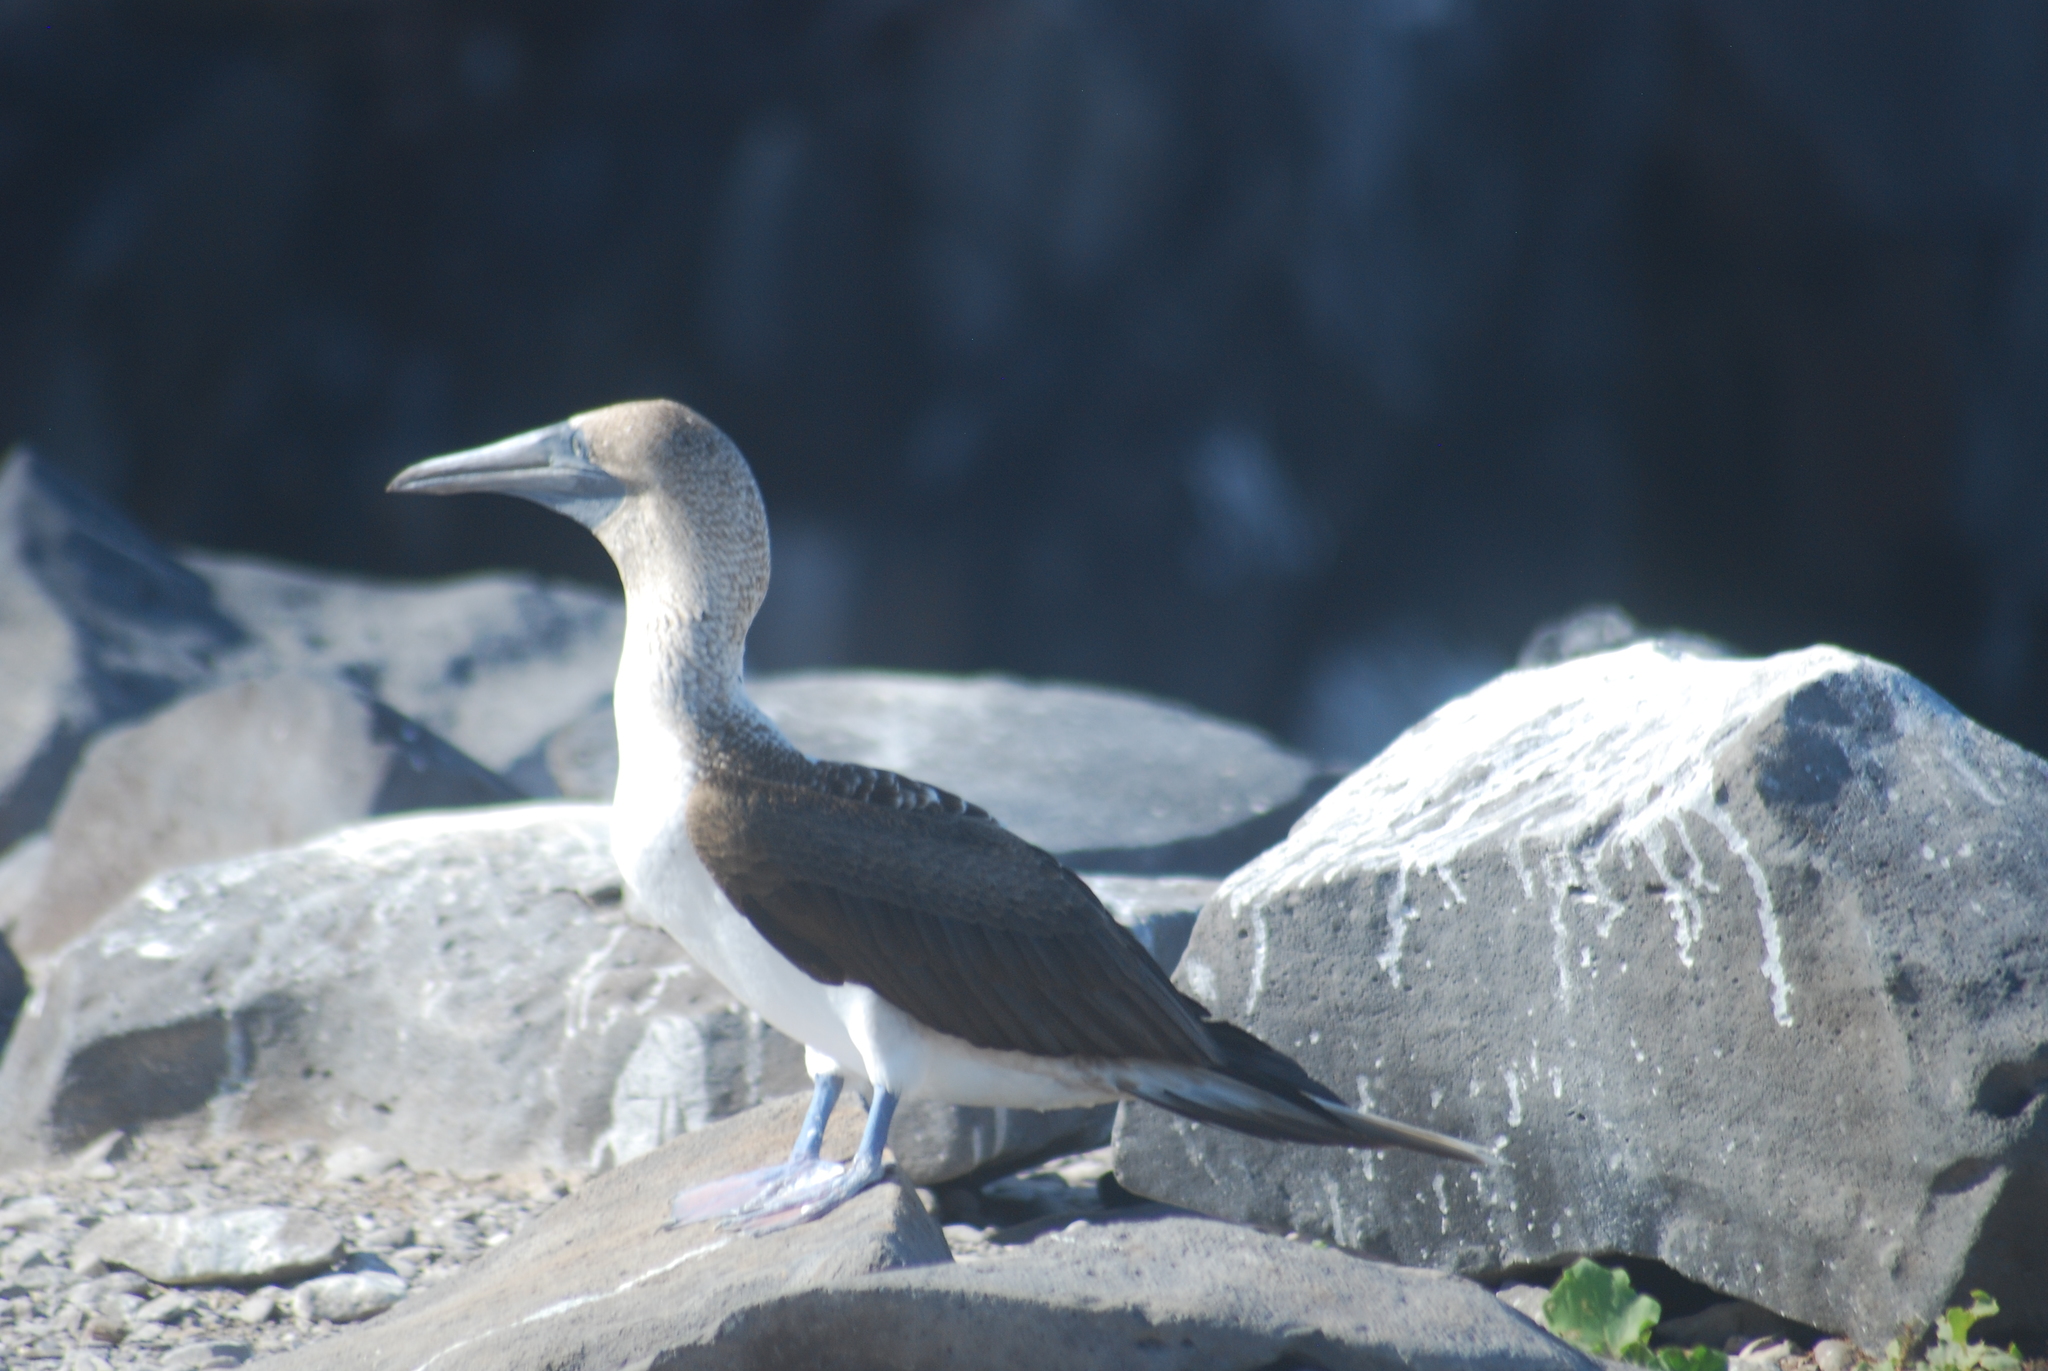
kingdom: Animalia
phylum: Chordata
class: Aves
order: Suliformes
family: Sulidae
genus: Sula
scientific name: Sula nebouxii
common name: Blue-footed booby
